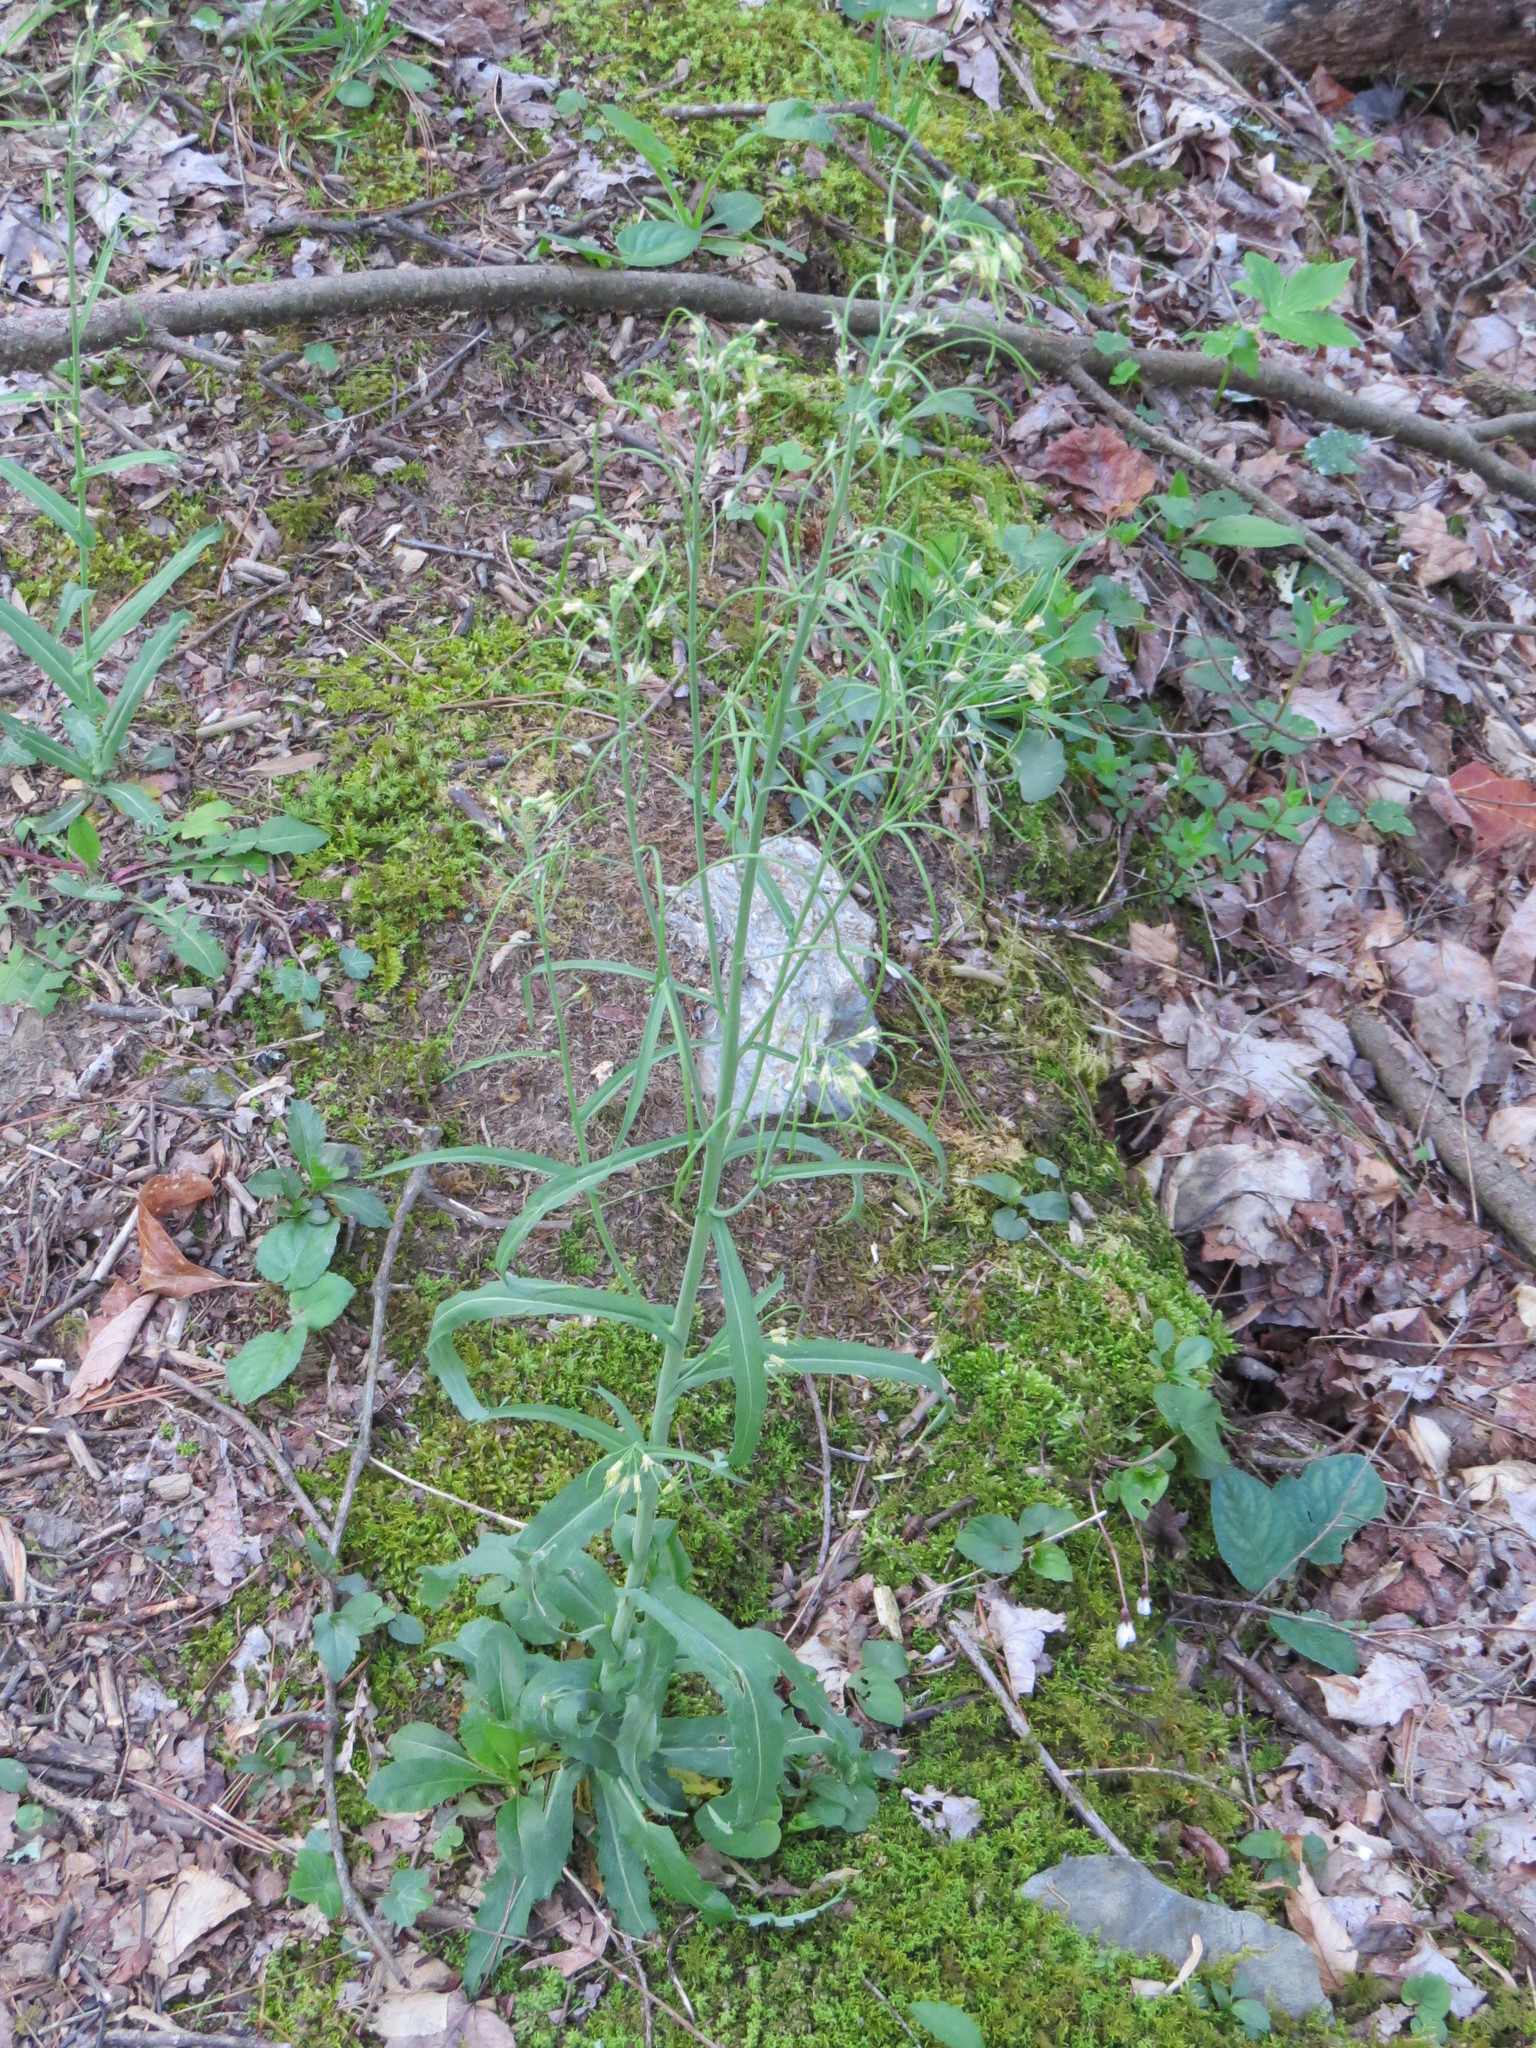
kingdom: Plantae
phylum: Tracheophyta
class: Magnoliopsida
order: Brassicales
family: Brassicaceae
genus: Borodinia
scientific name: Borodinia laevigata
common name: Smooth rockcress
